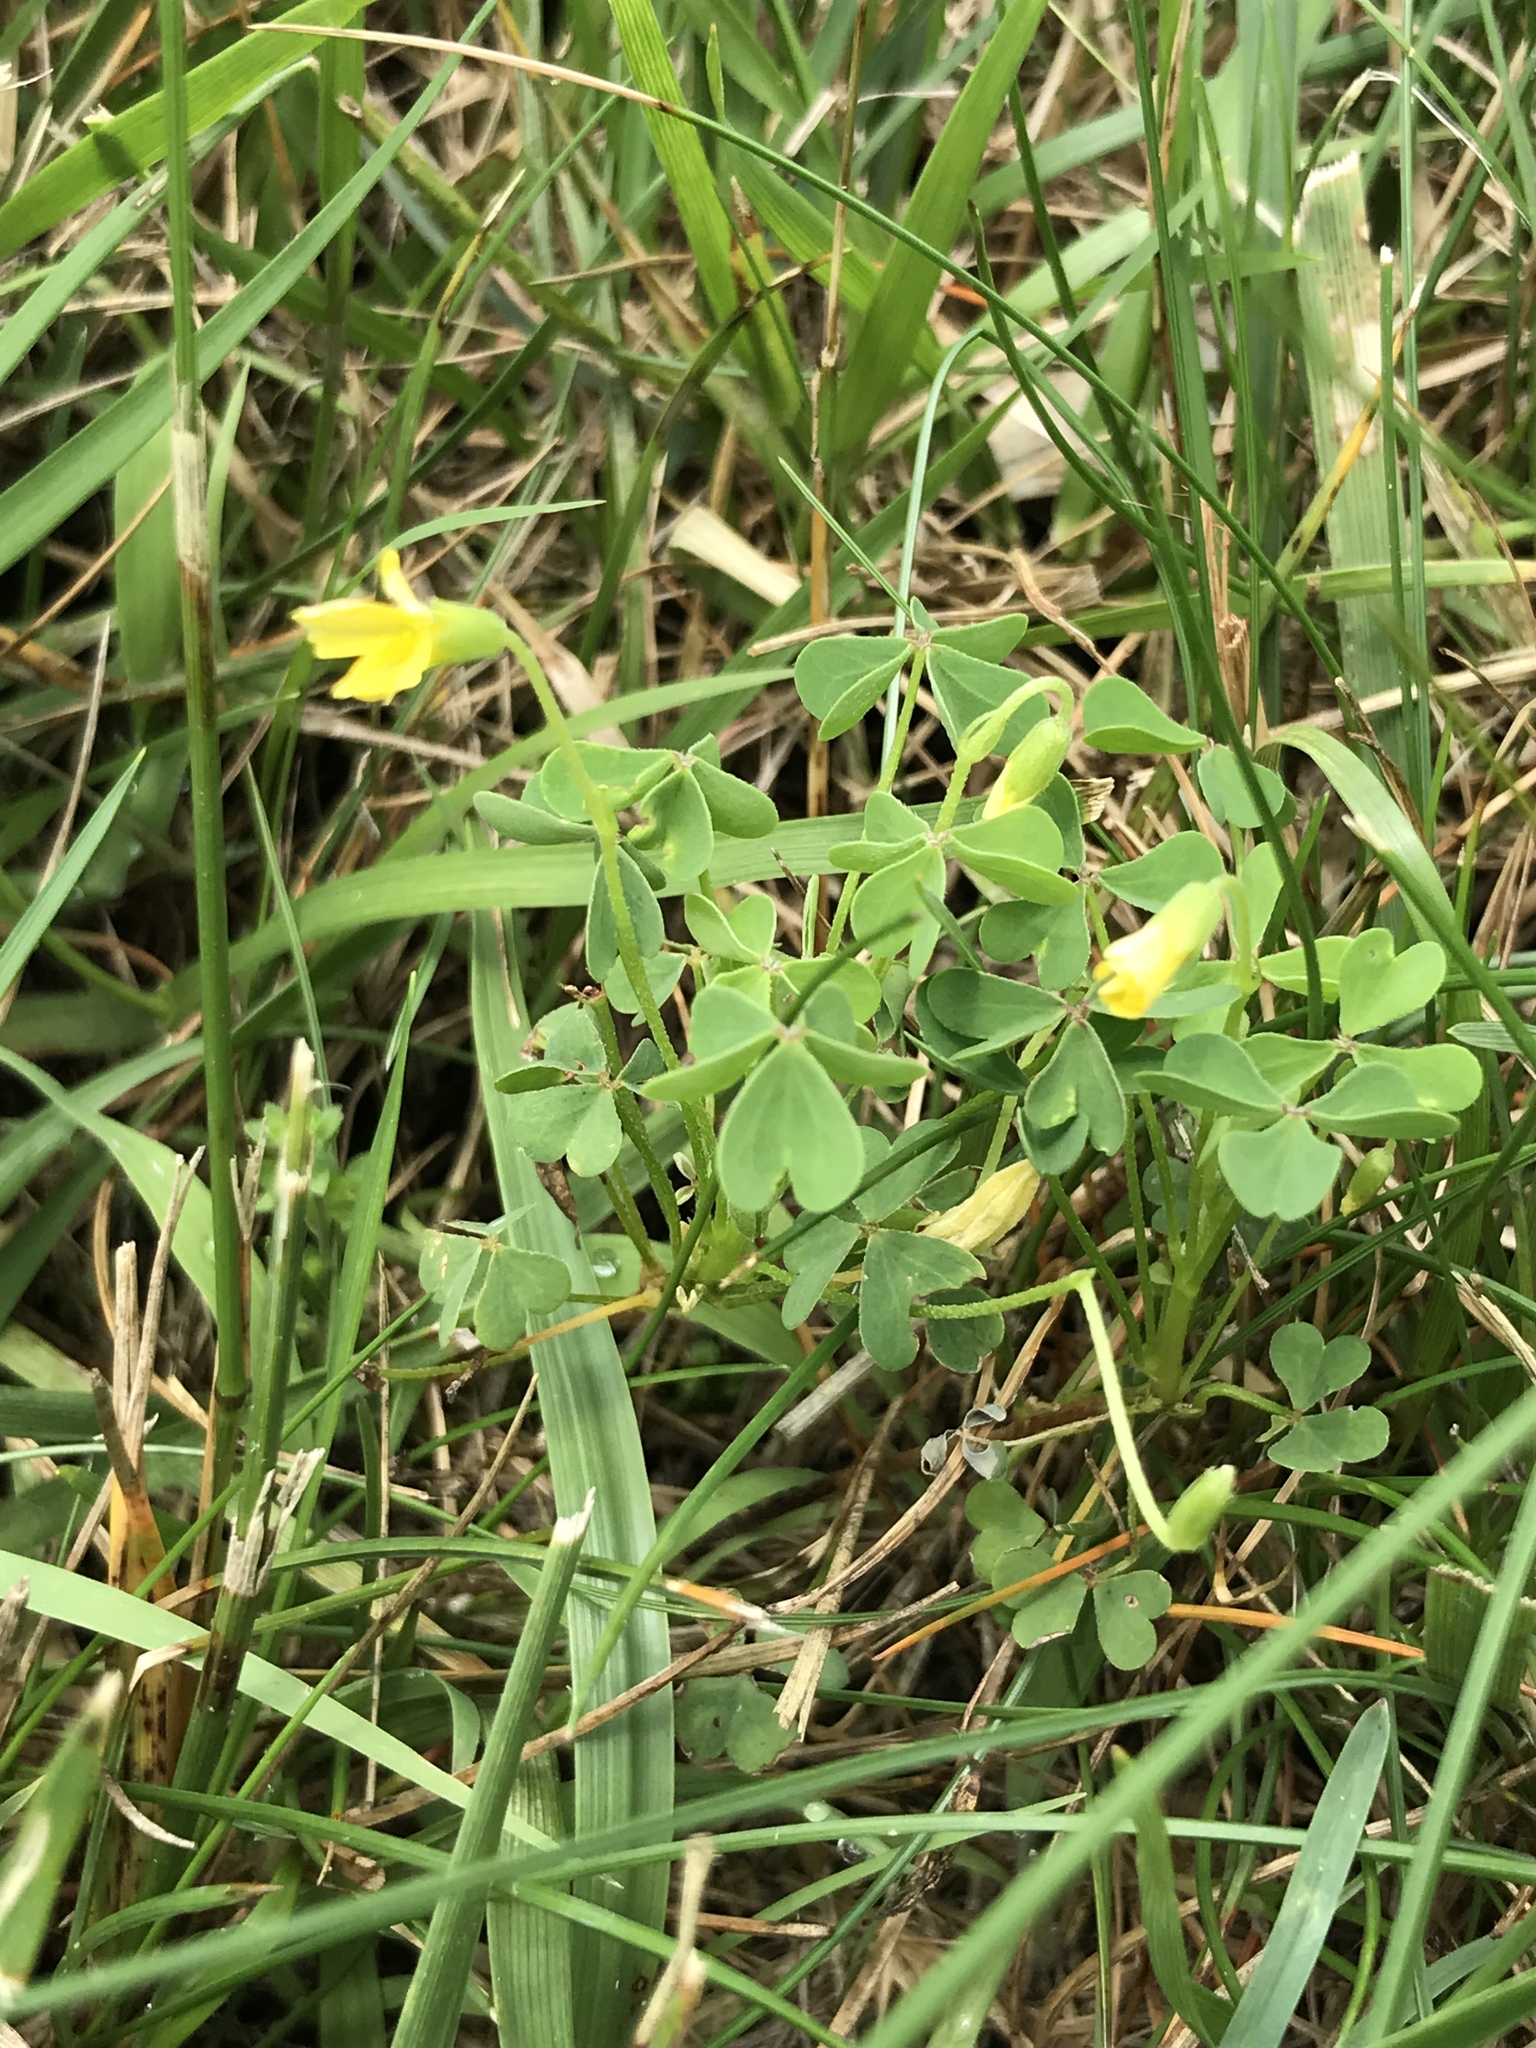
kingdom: Plantae
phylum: Tracheophyta
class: Magnoliopsida
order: Oxalidales
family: Oxalidaceae
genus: Oxalis
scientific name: Oxalis dillenii
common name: Sussex yellow-sorrel
